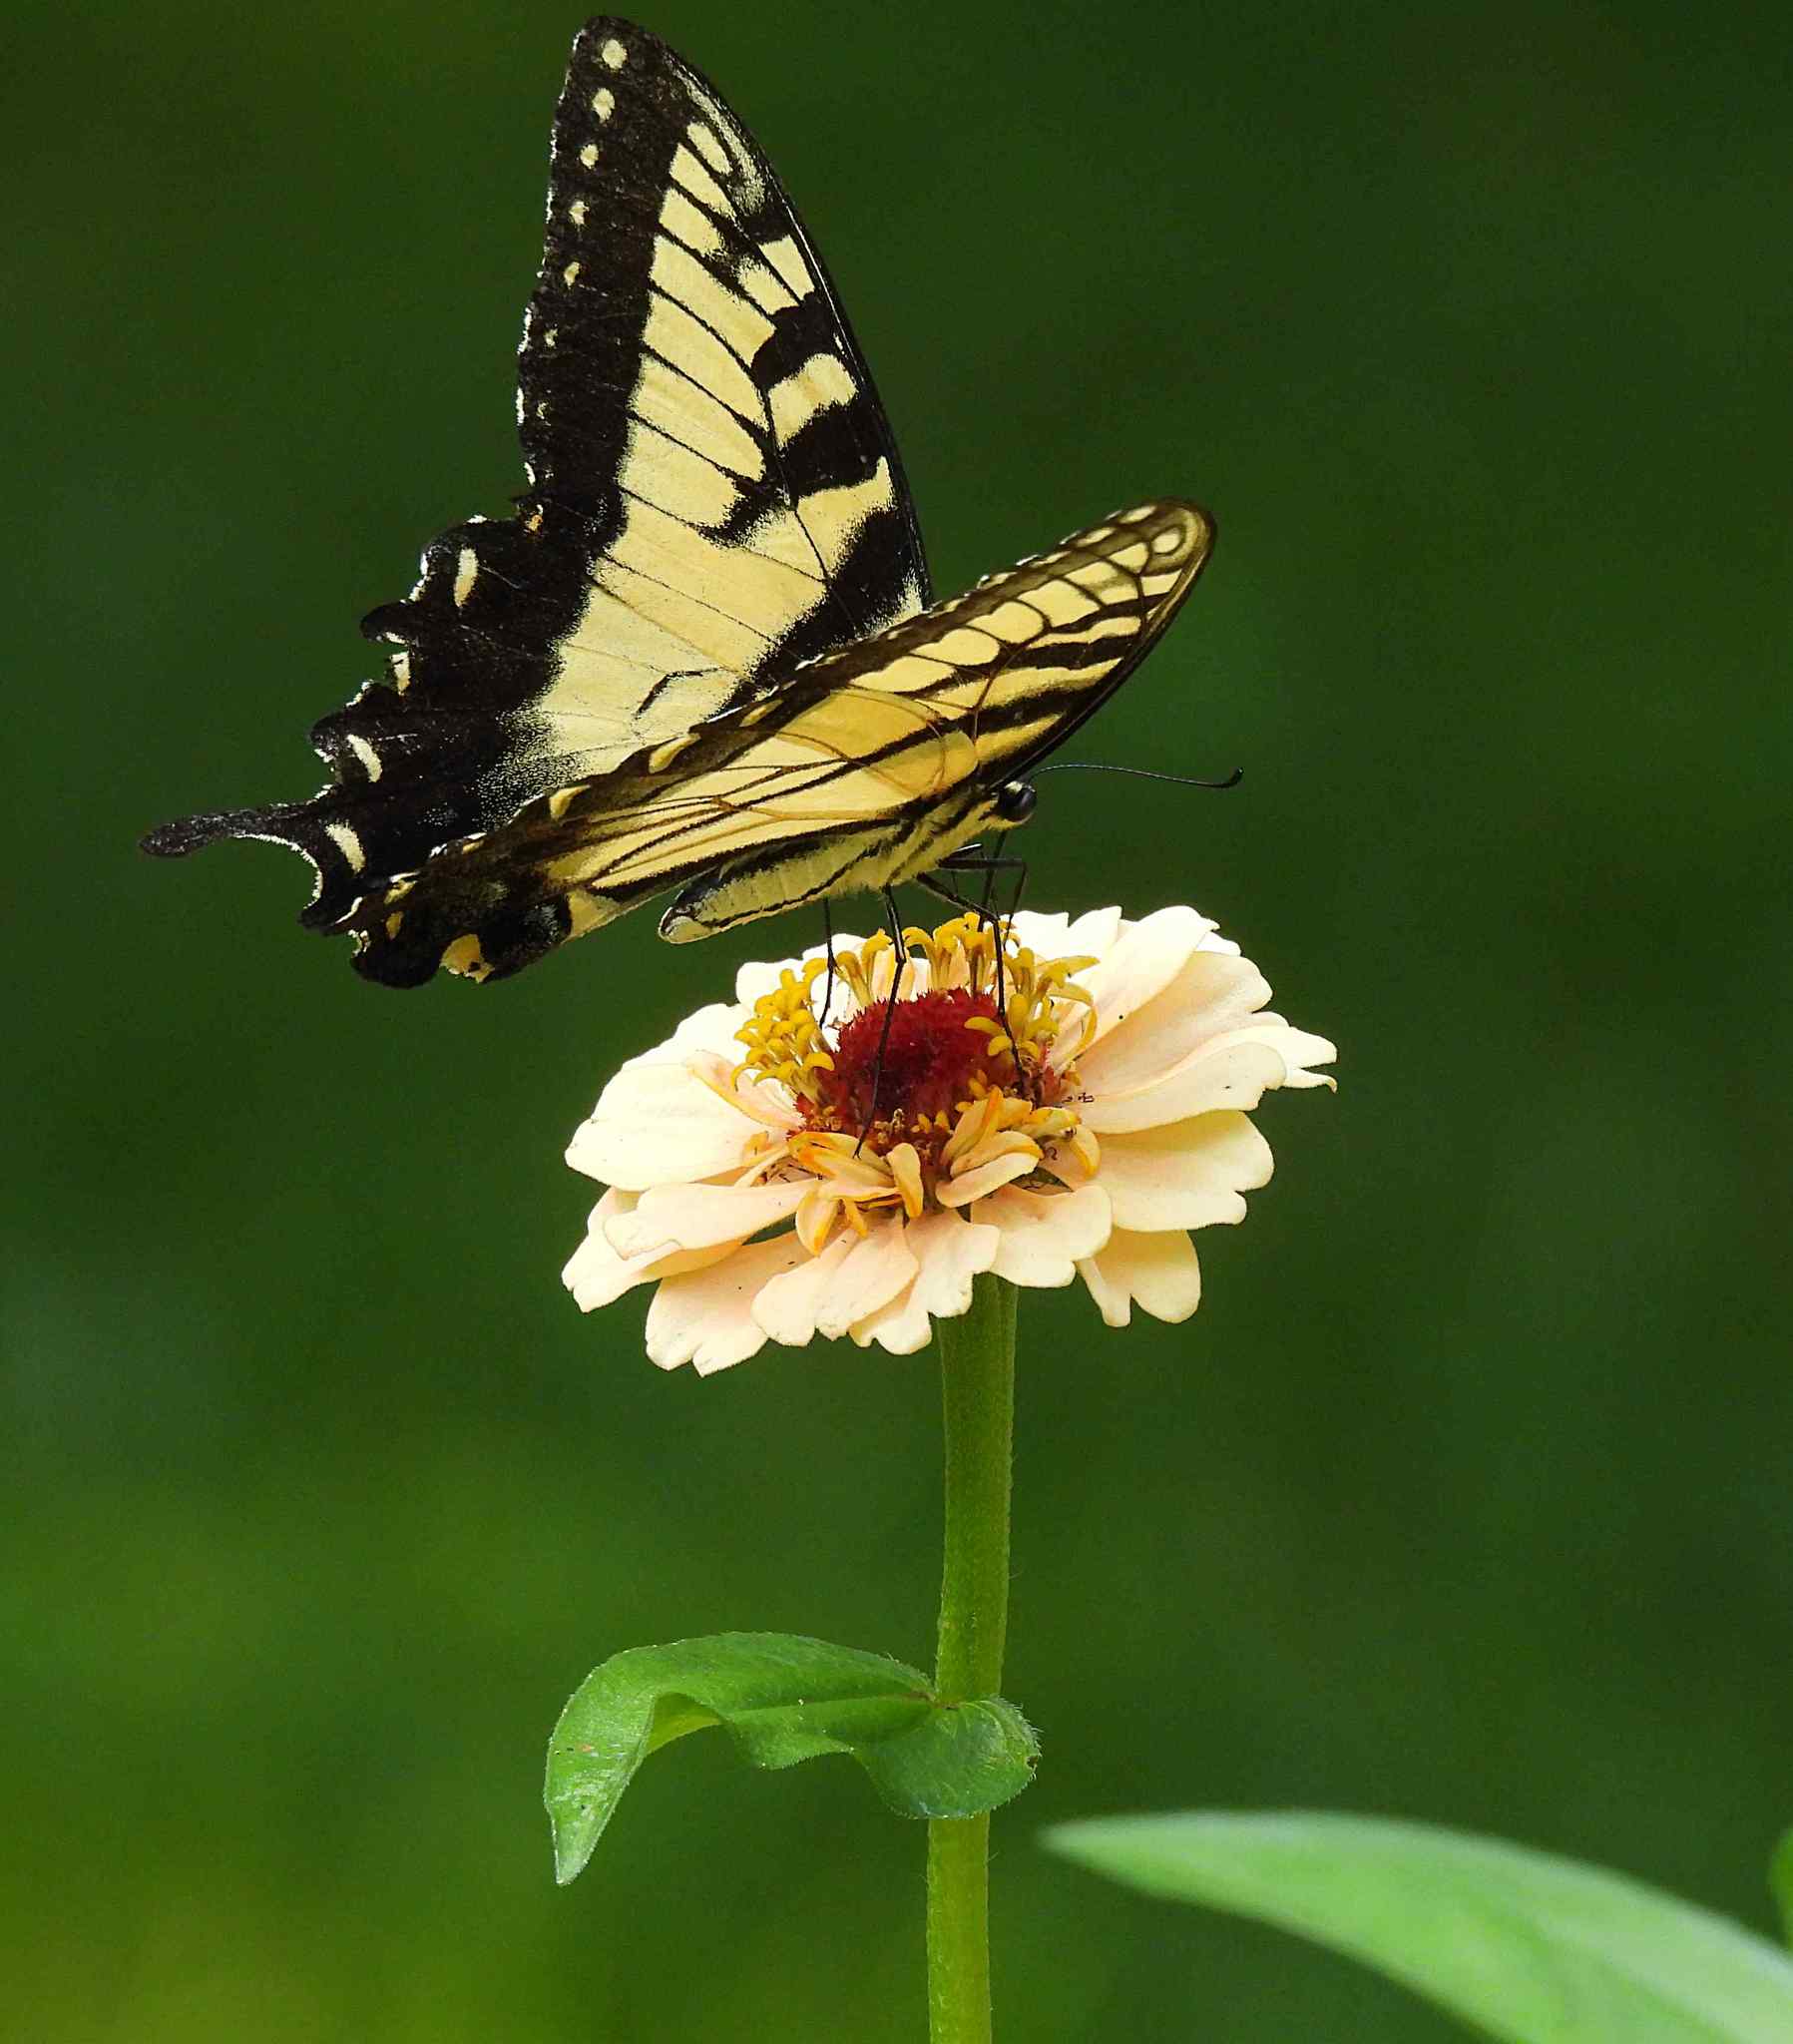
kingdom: Animalia
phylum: Arthropoda
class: Insecta
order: Lepidoptera
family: Papilionidae
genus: Papilio
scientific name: Papilio glaucus
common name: Tiger swallowtail
